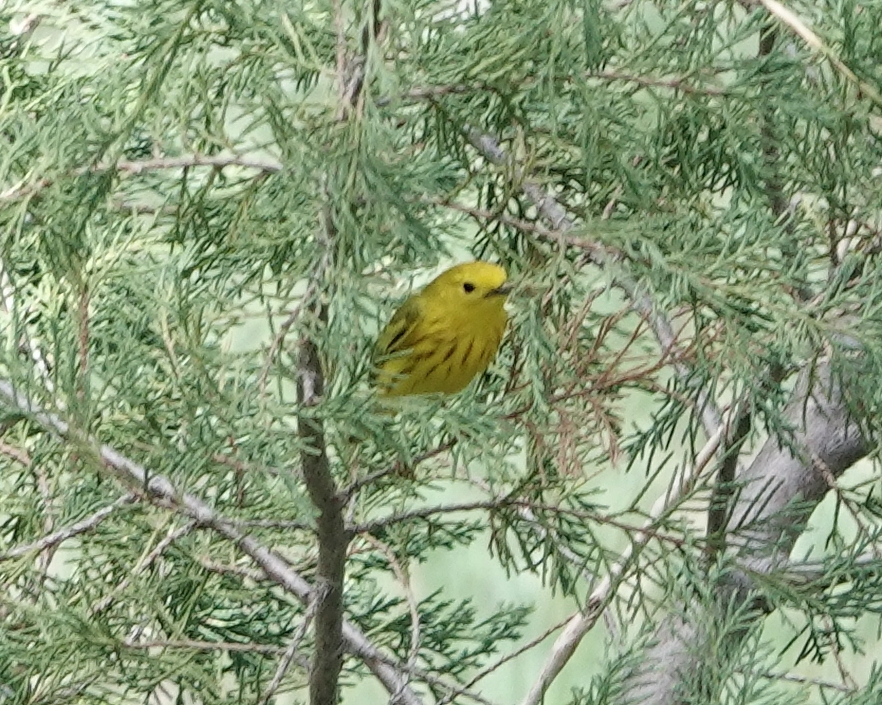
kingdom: Animalia
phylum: Chordata
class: Aves
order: Passeriformes
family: Parulidae
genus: Setophaga
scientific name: Setophaga petechia
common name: Yellow warbler
